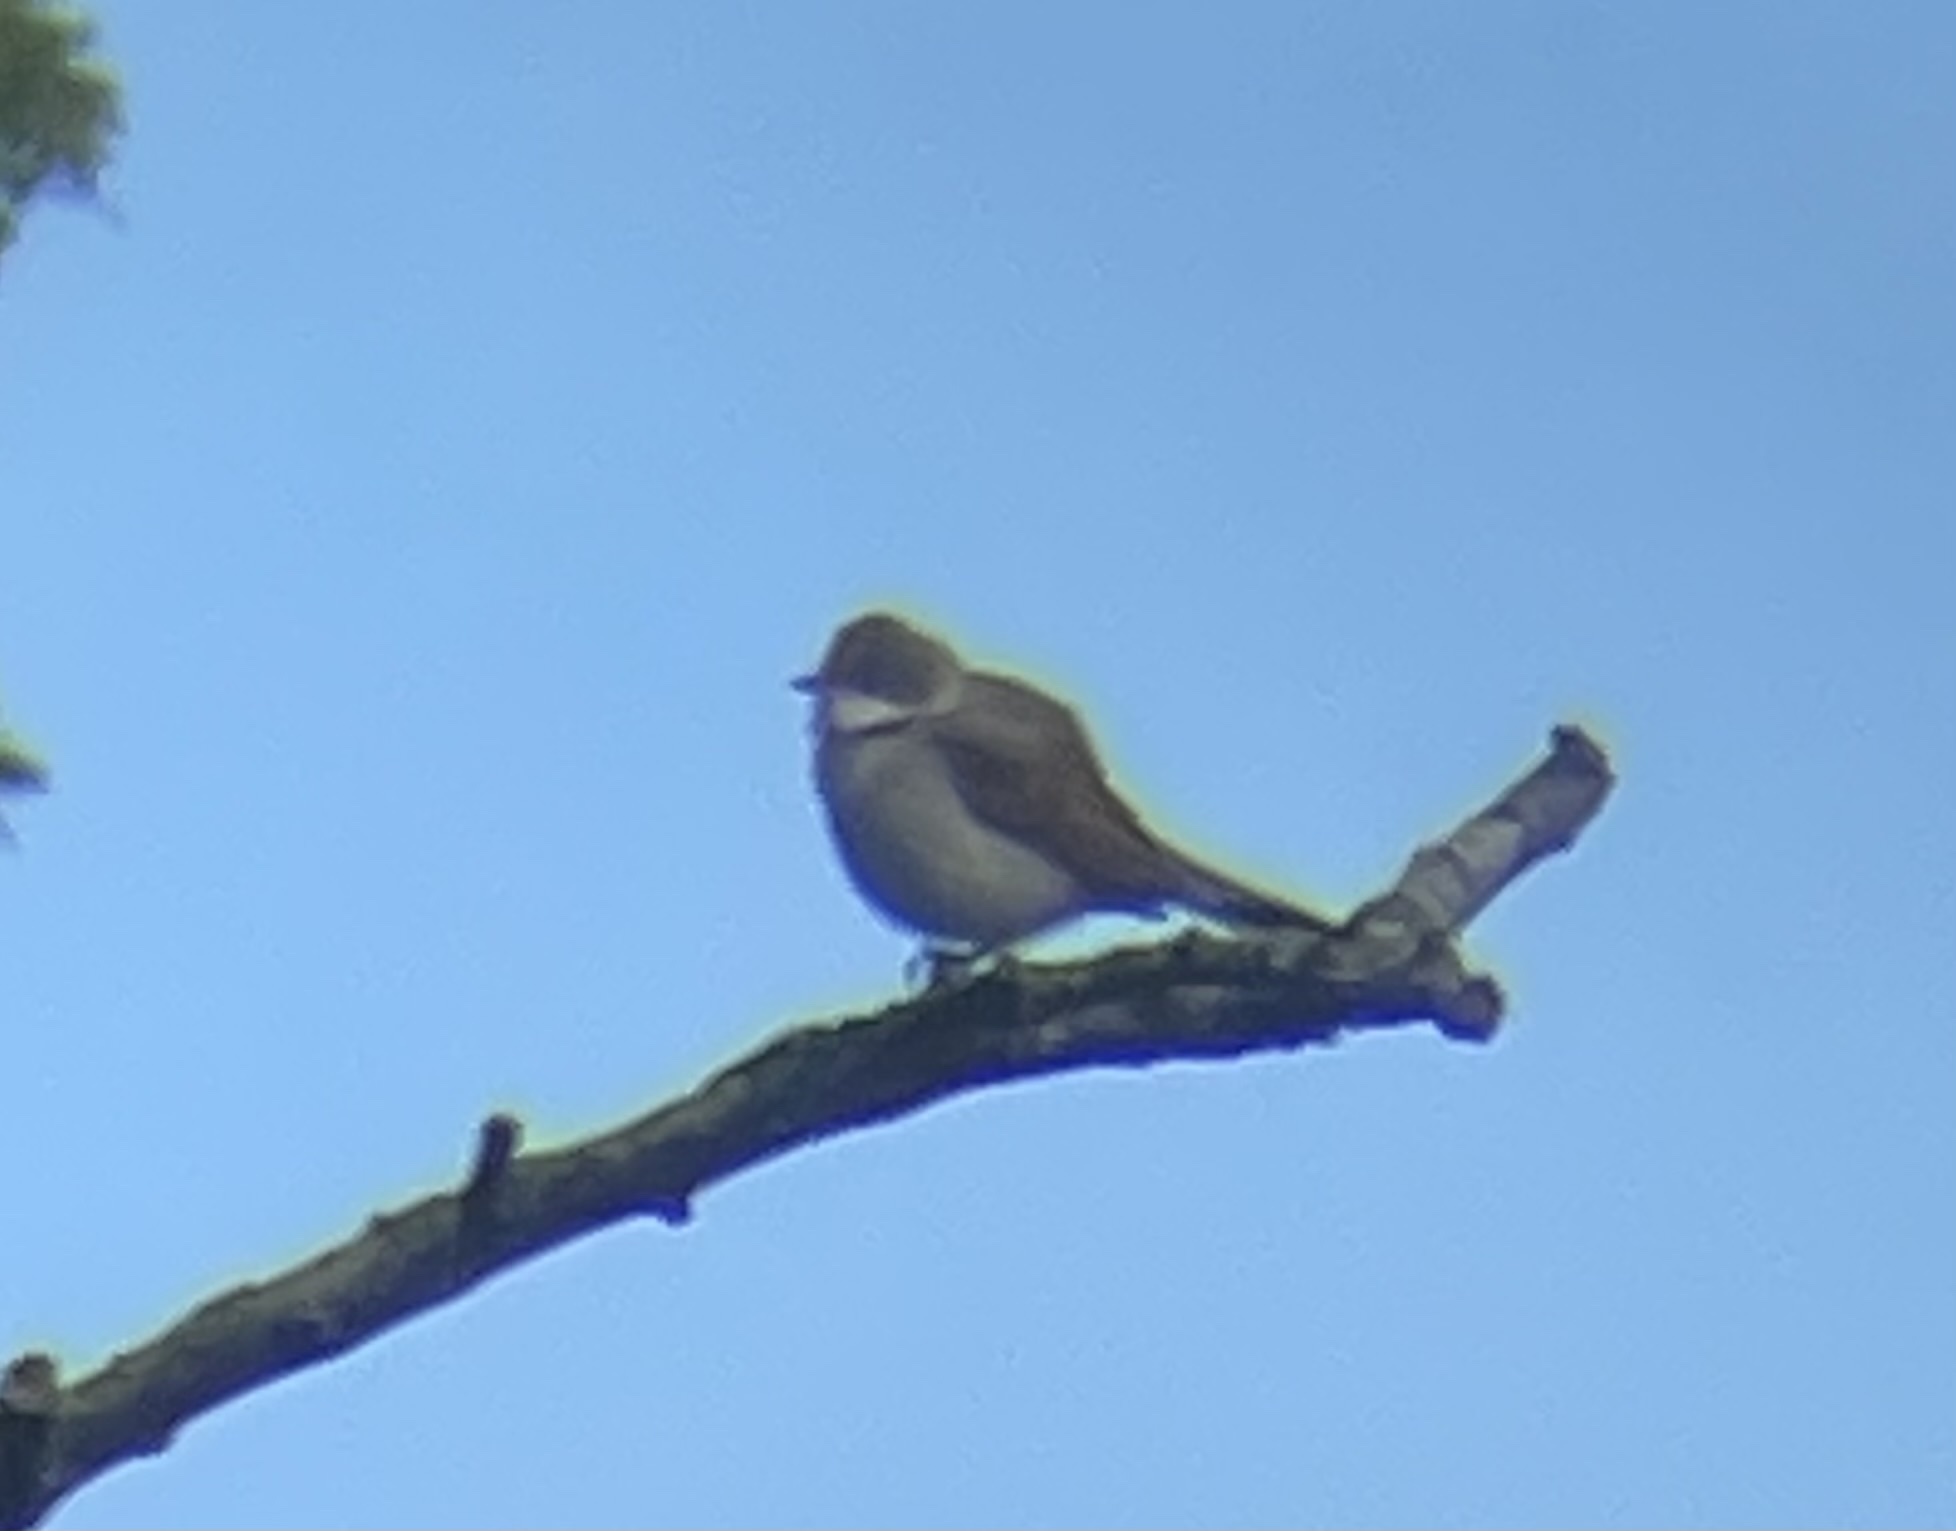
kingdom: Animalia
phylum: Chordata
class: Aves
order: Passeriformes
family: Sylviidae
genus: Sylvia
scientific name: Sylvia communis
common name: Common whitethroat
